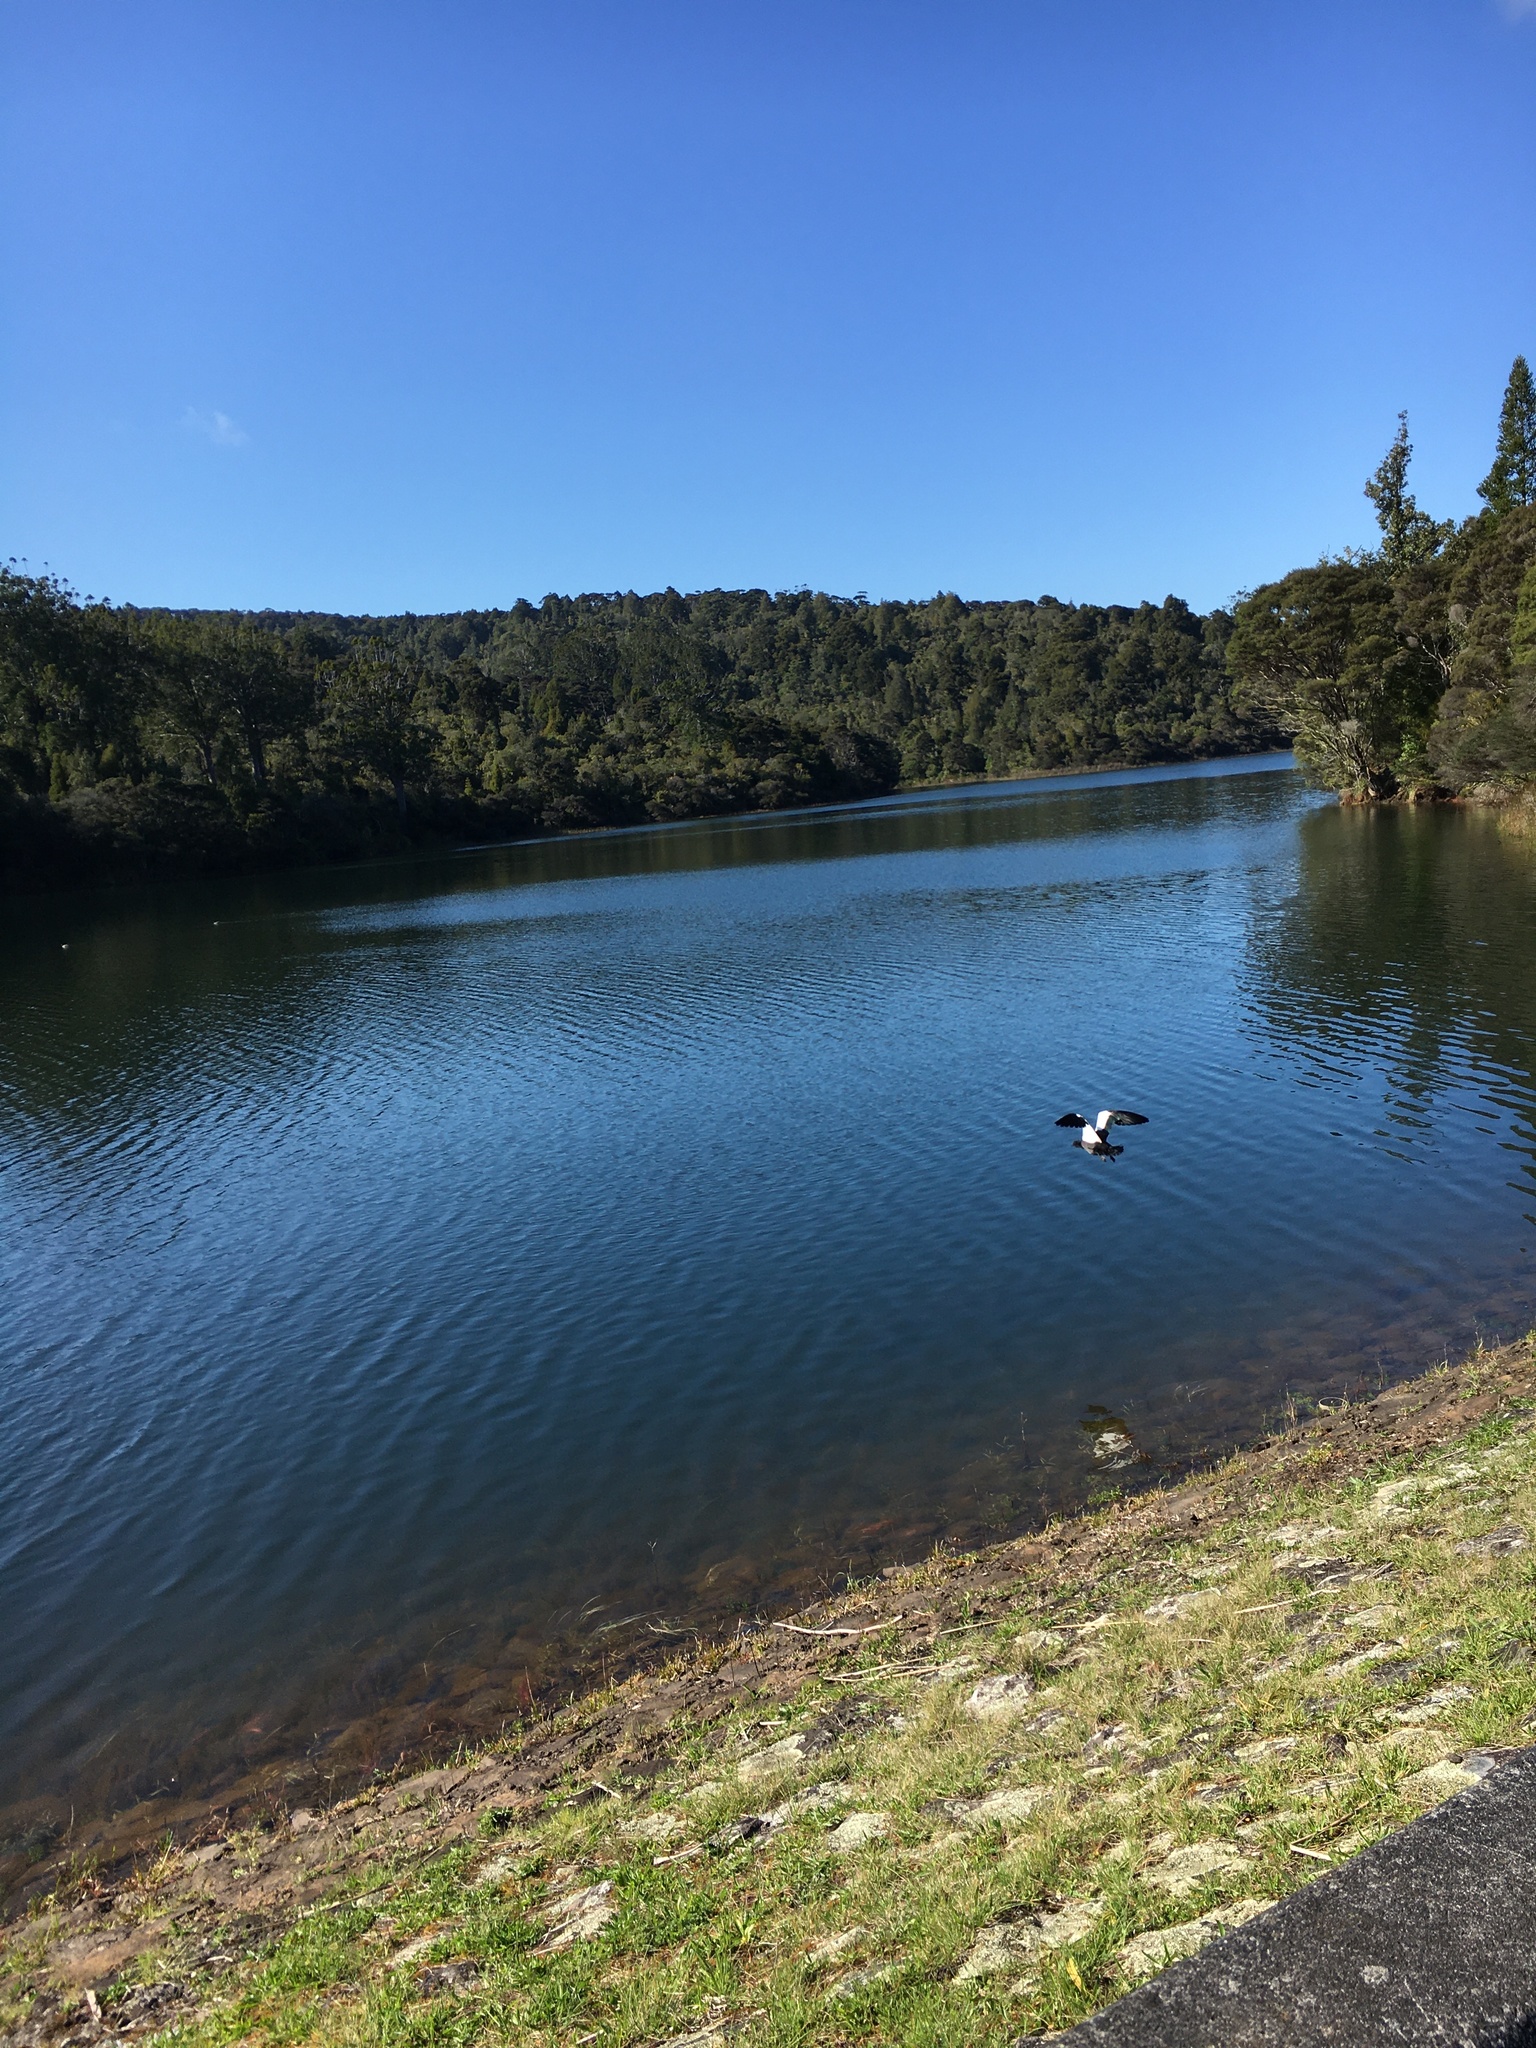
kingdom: Animalia
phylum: Chordata
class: Aves
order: Anseriformes
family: Anatidae
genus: Tadorna
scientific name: Tadorna variegata
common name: Paradise shelduck
